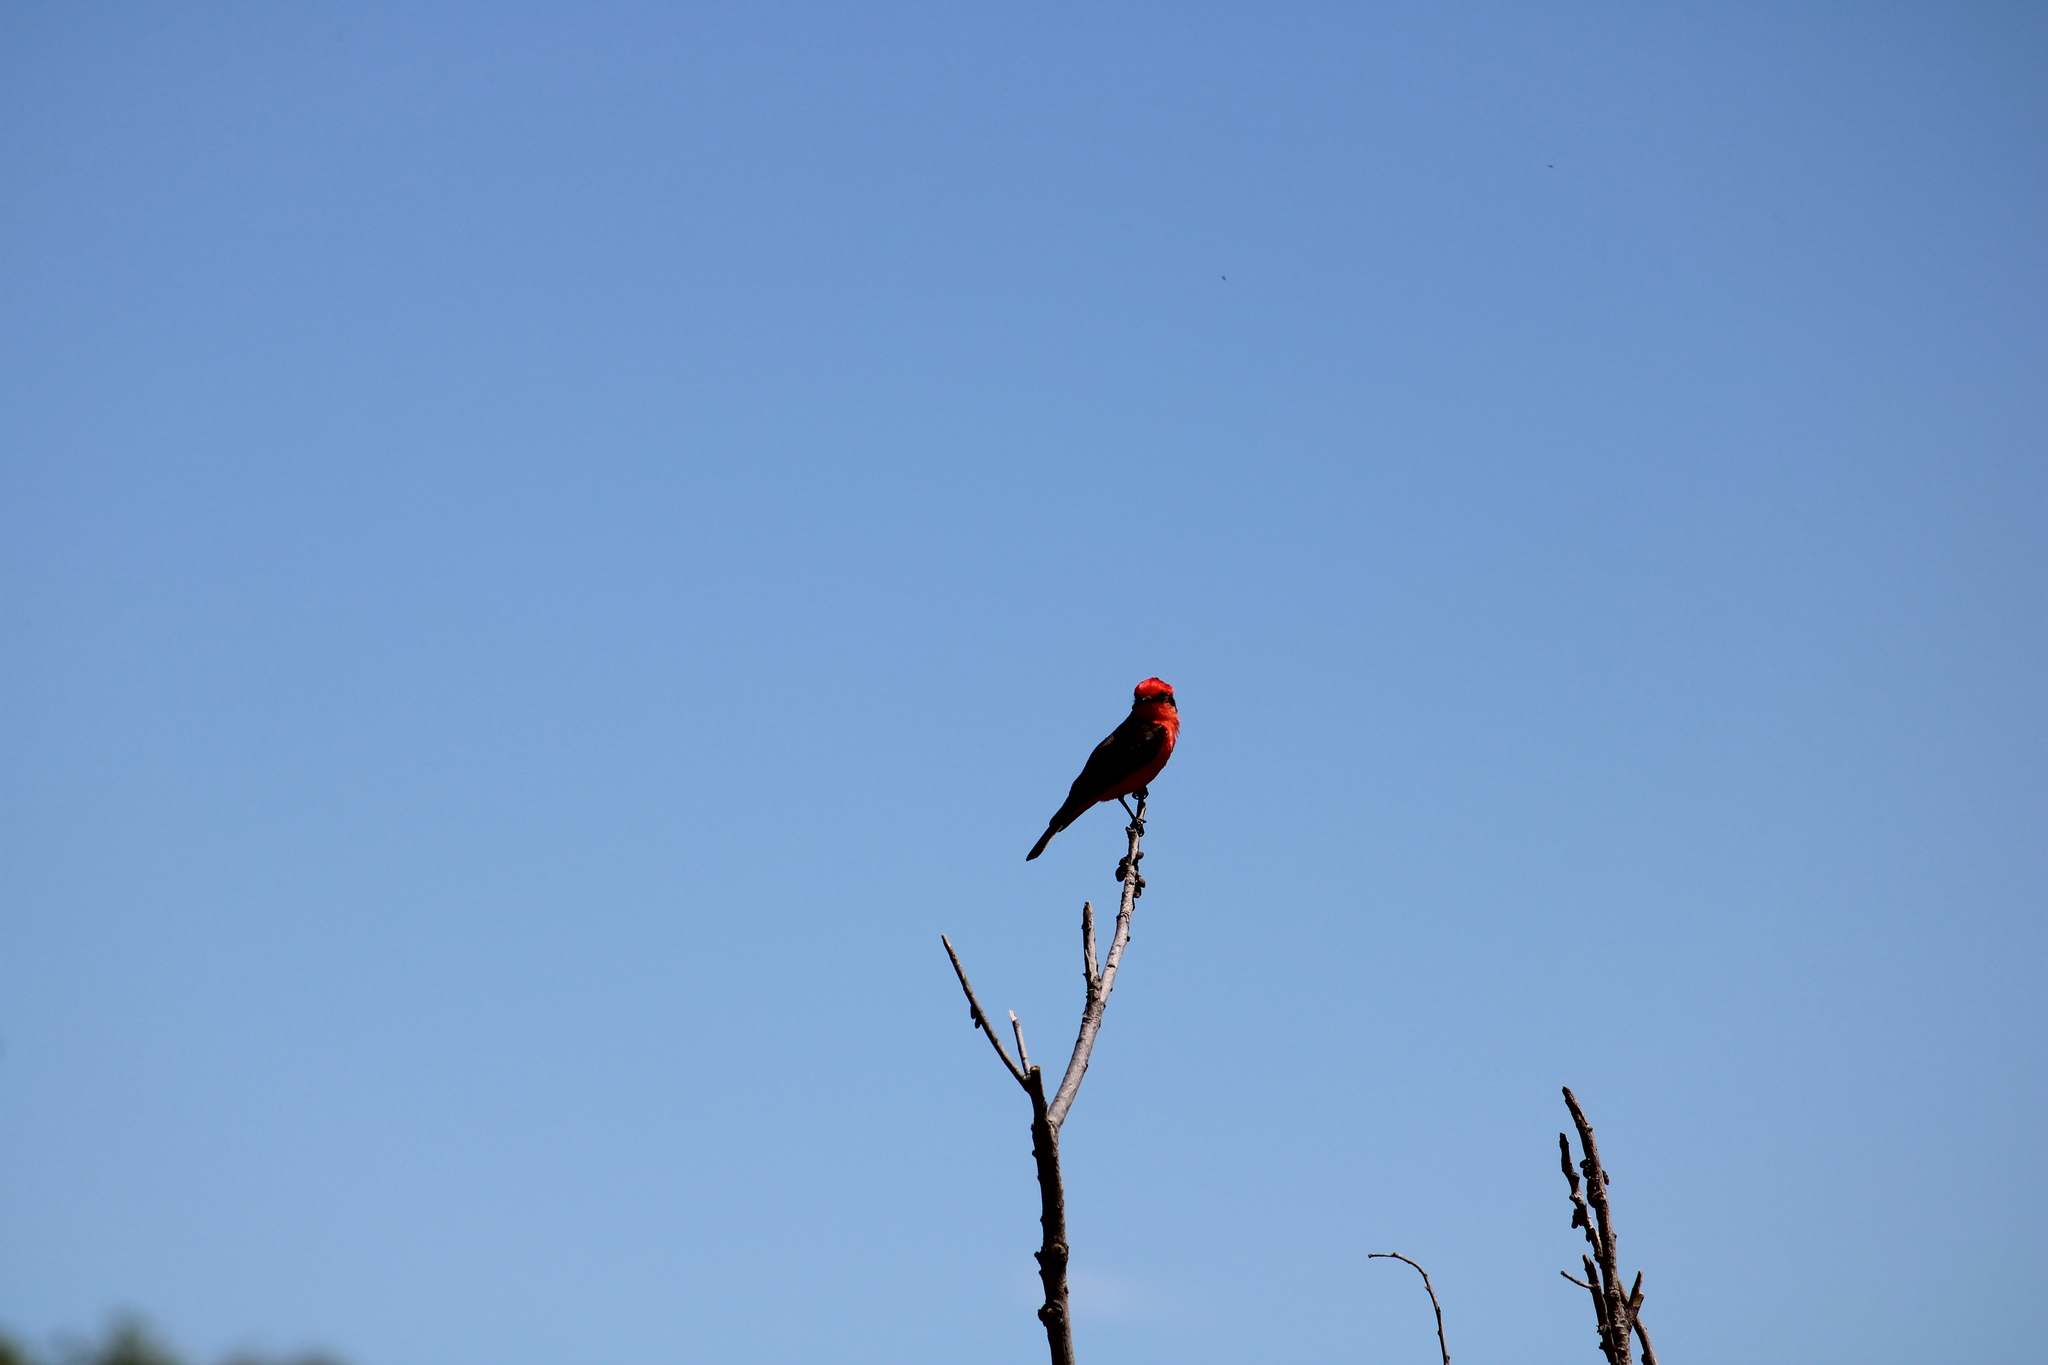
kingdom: Animalia
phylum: Chordata
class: Aves
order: Passeriformes
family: Tyrannidae
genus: Pyrocephalus
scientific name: Pyrocephalus rubinus
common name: Vermilion flycatcher
